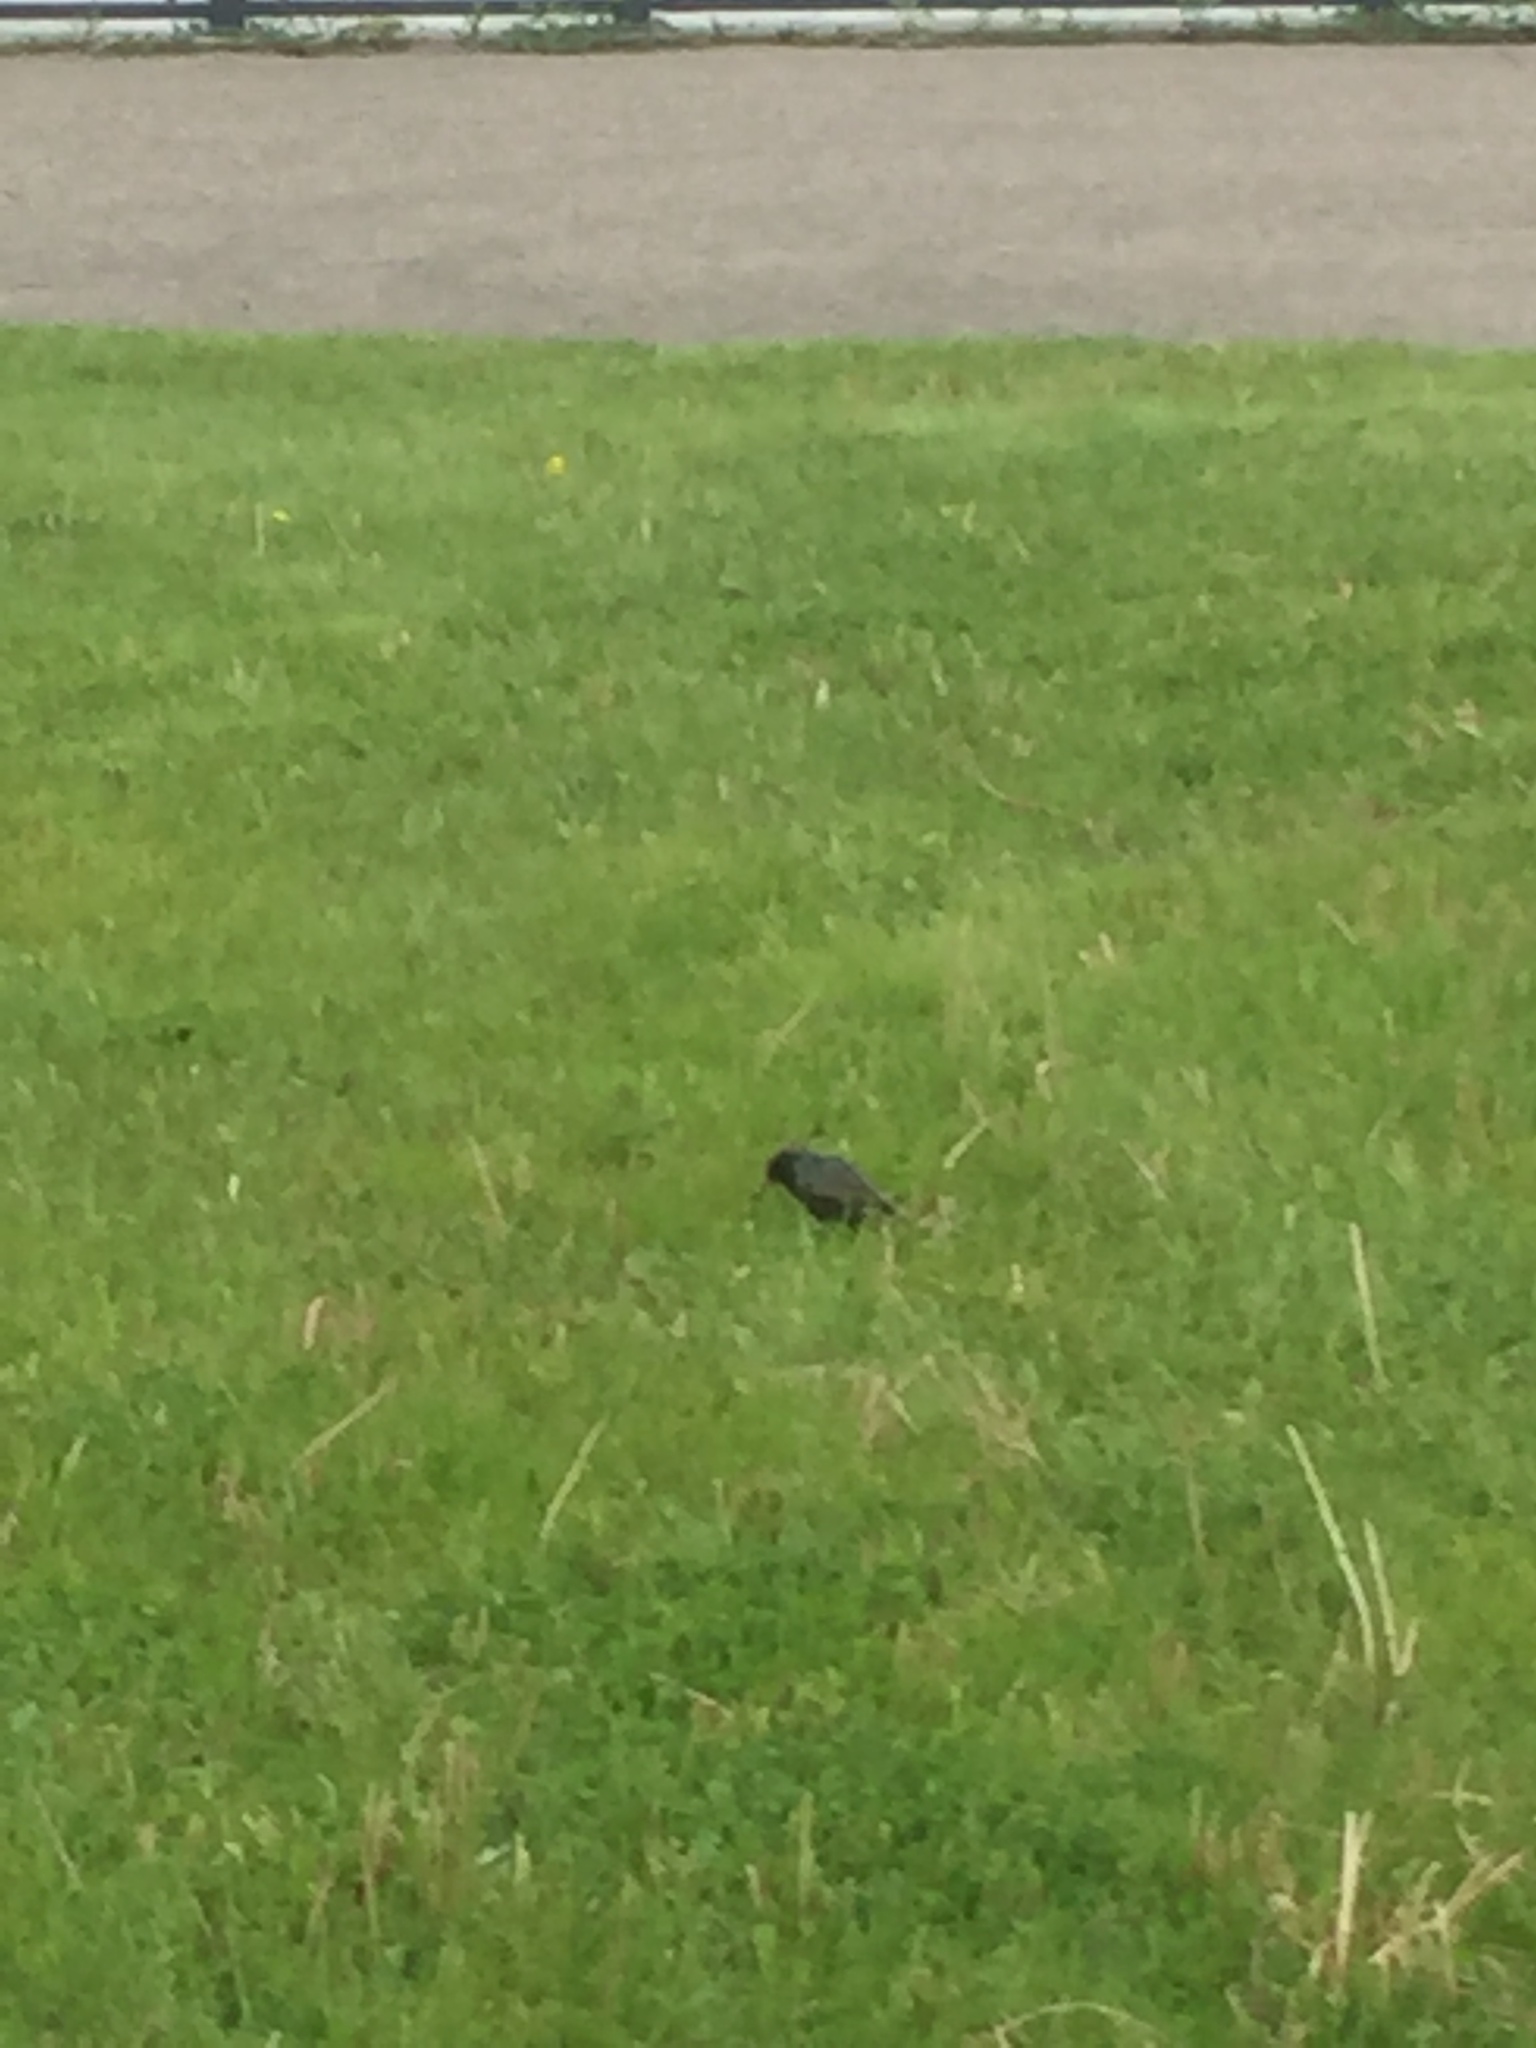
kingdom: Animalia
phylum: Chordata
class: Aves
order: Passeriformes
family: Sturnidae
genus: Sturnus
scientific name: Sturnus vulgaris
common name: Common starling
